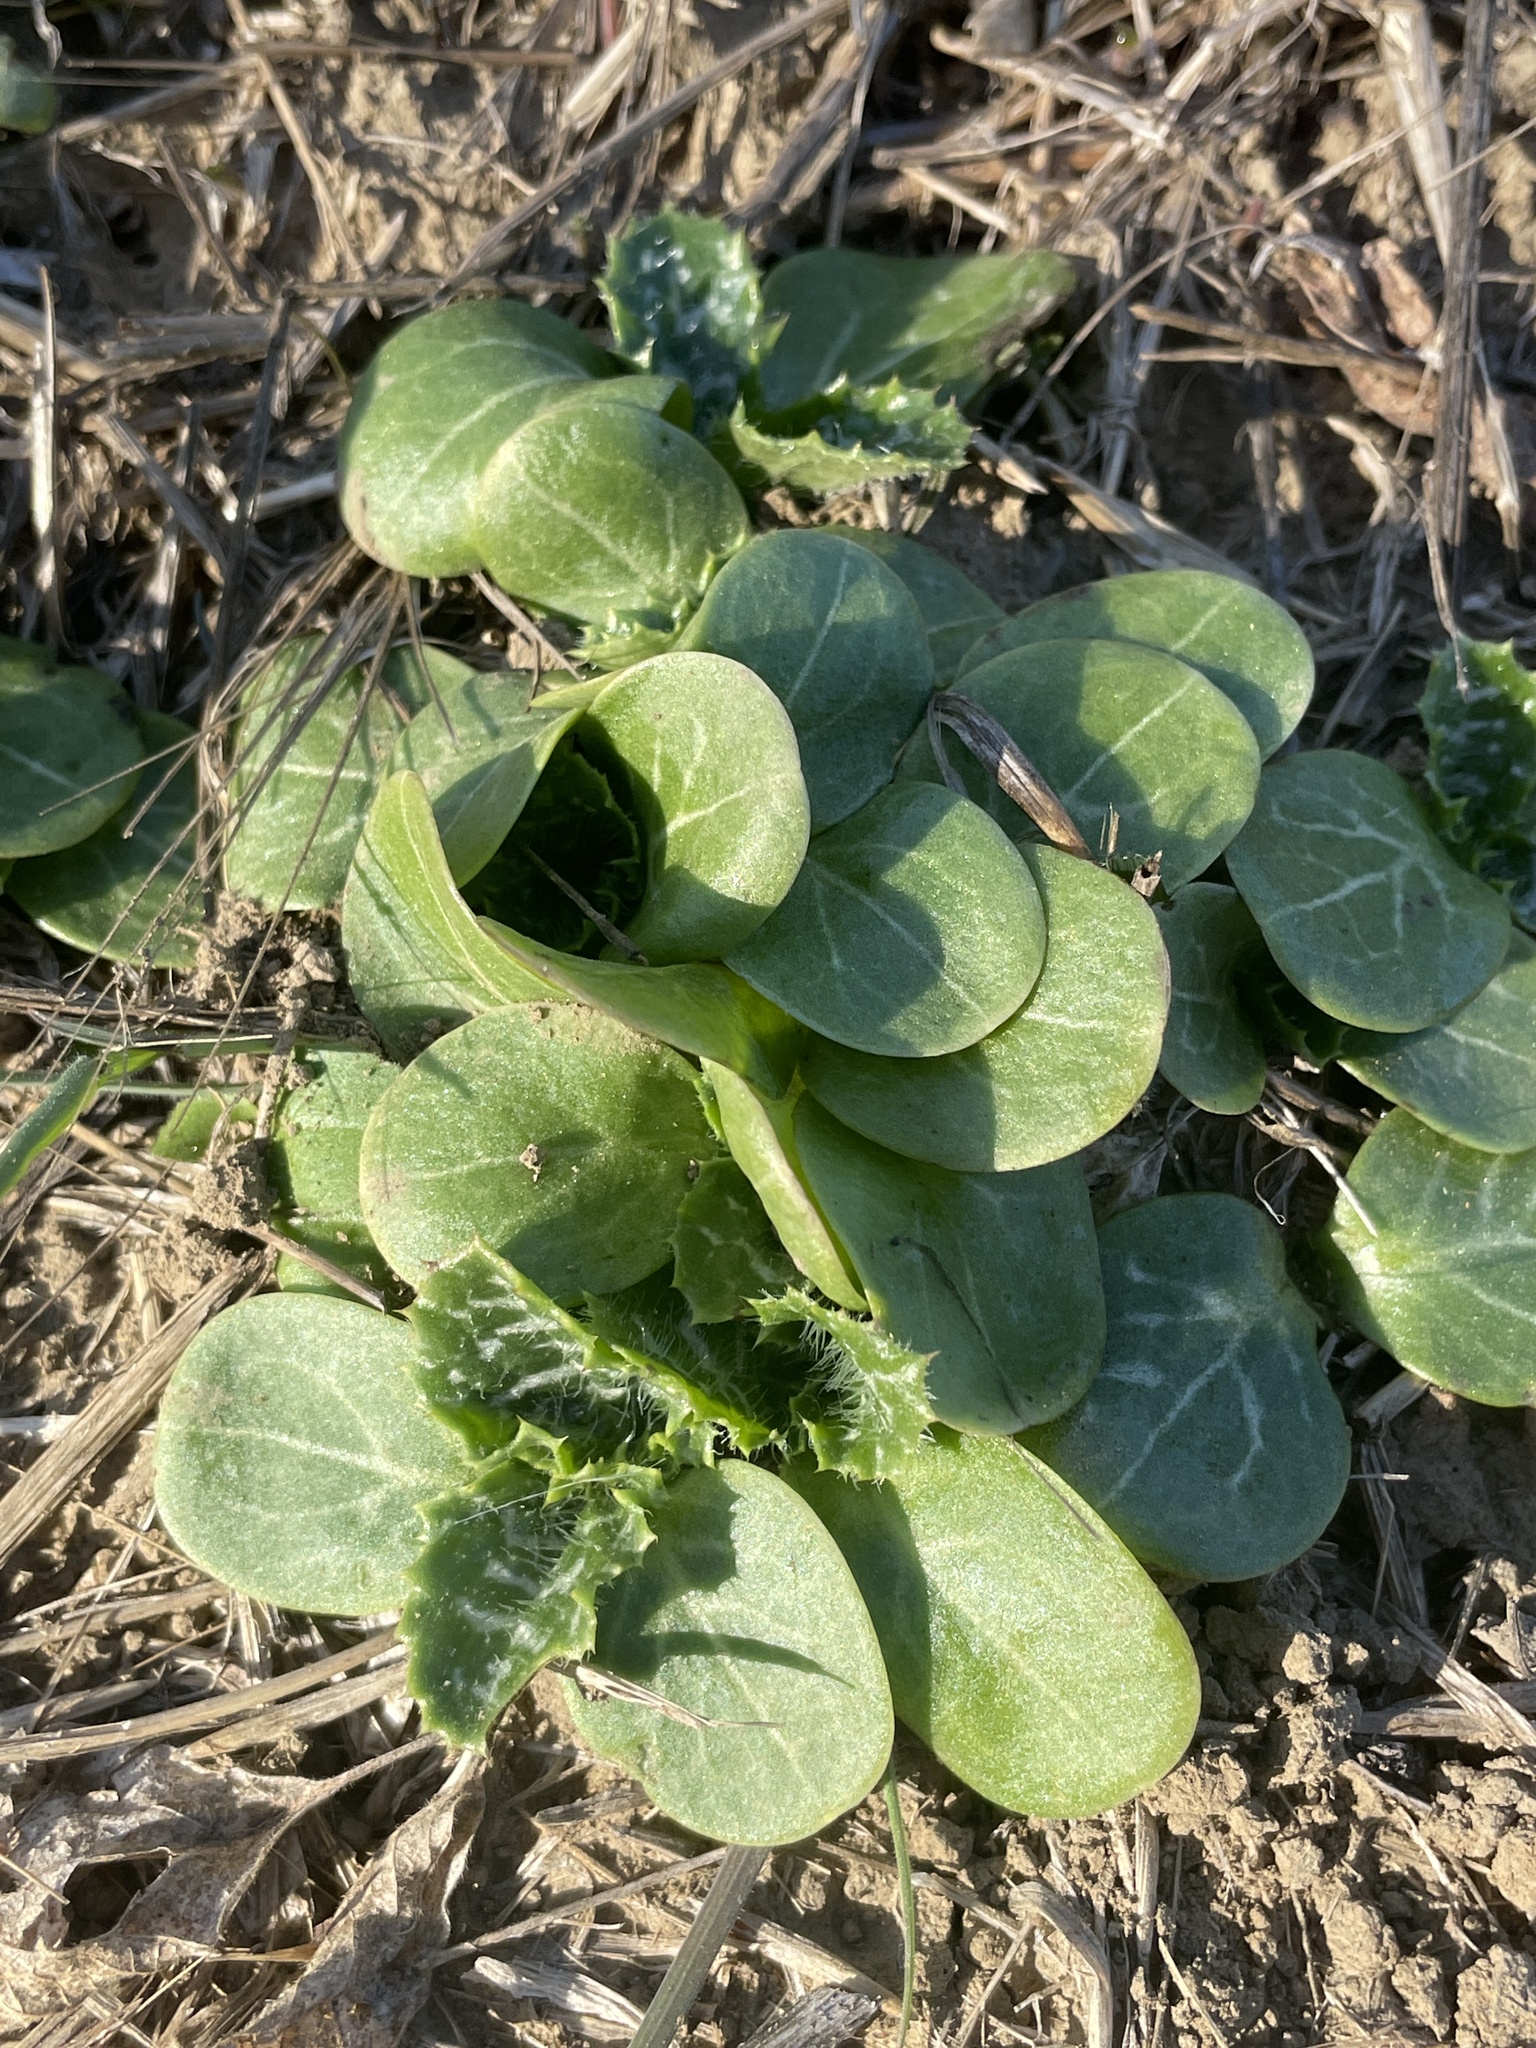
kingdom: Plantae
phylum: Tracheophyta
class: Magnoliopsida
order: Asterales
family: Asteraceae
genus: Silybum
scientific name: Silybum marianum
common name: Milk thistle
